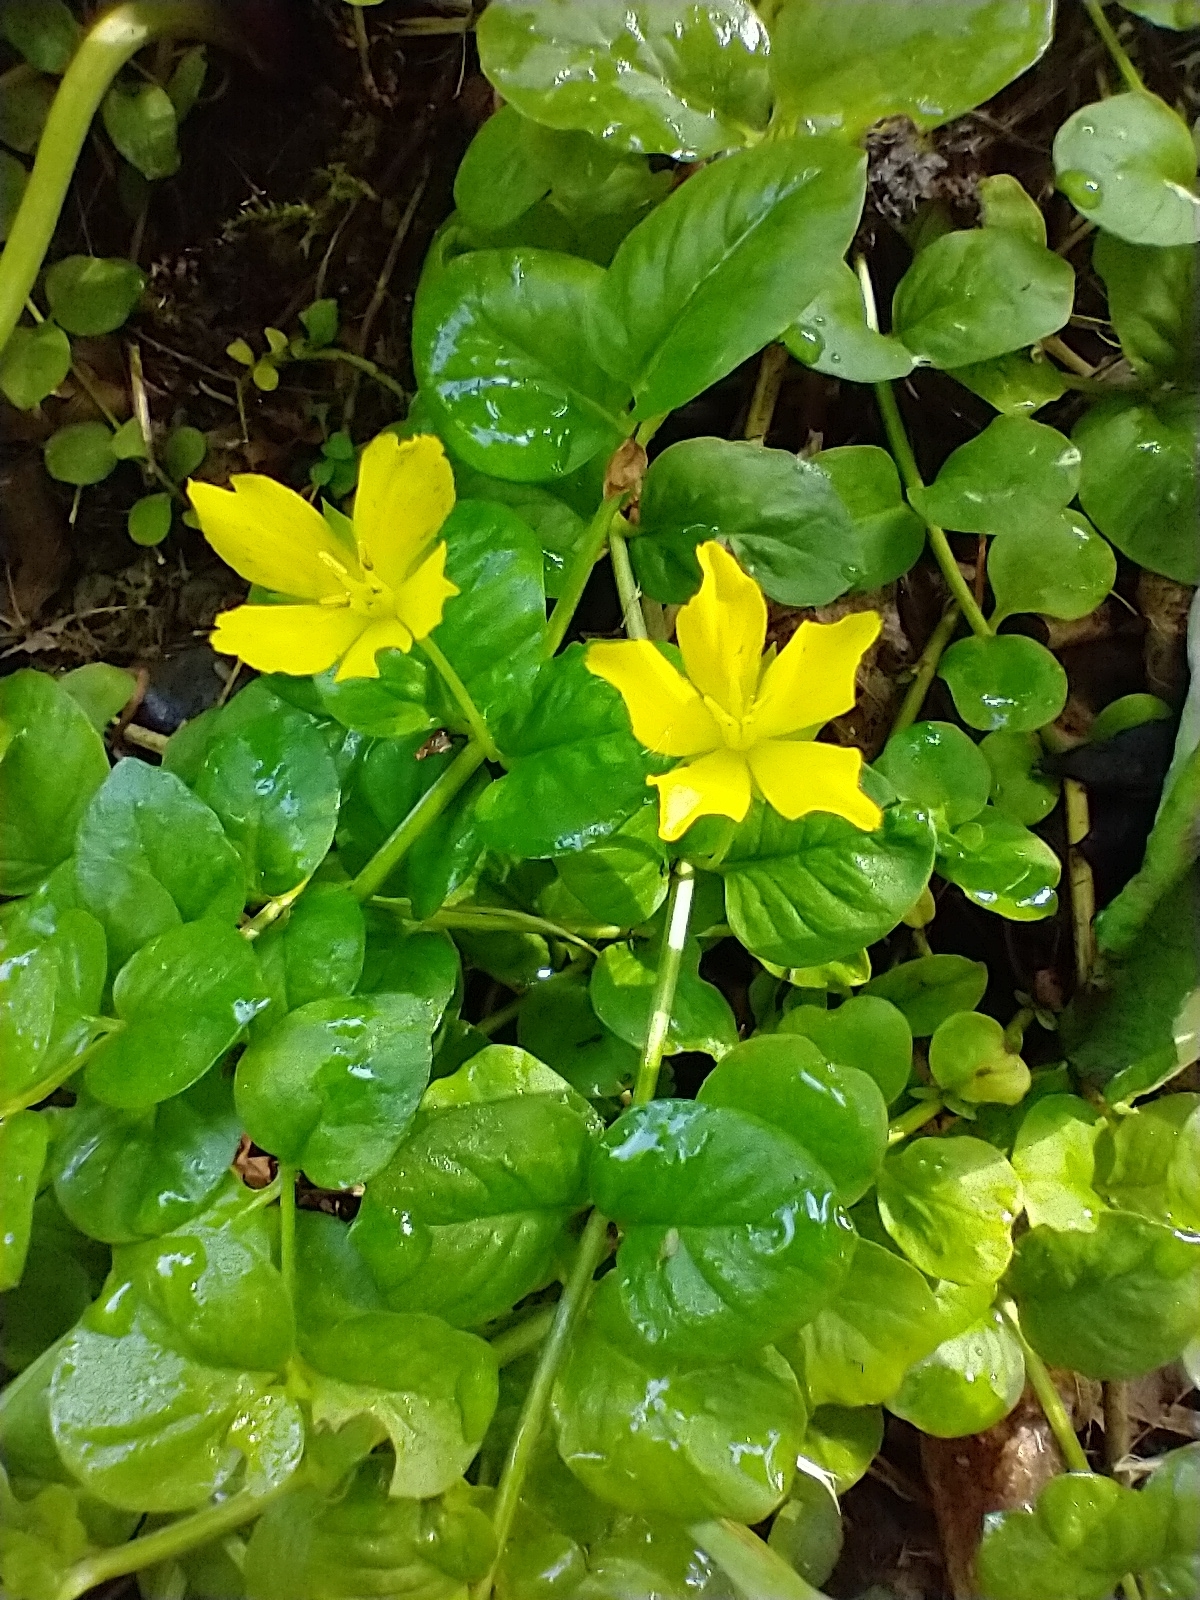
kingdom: Plantae
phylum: Tracheophyta
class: Magnoliopsida
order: Ericales
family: Primulaceae
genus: Lysimachia
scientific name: Lysimachia nummularia
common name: Moneywort
